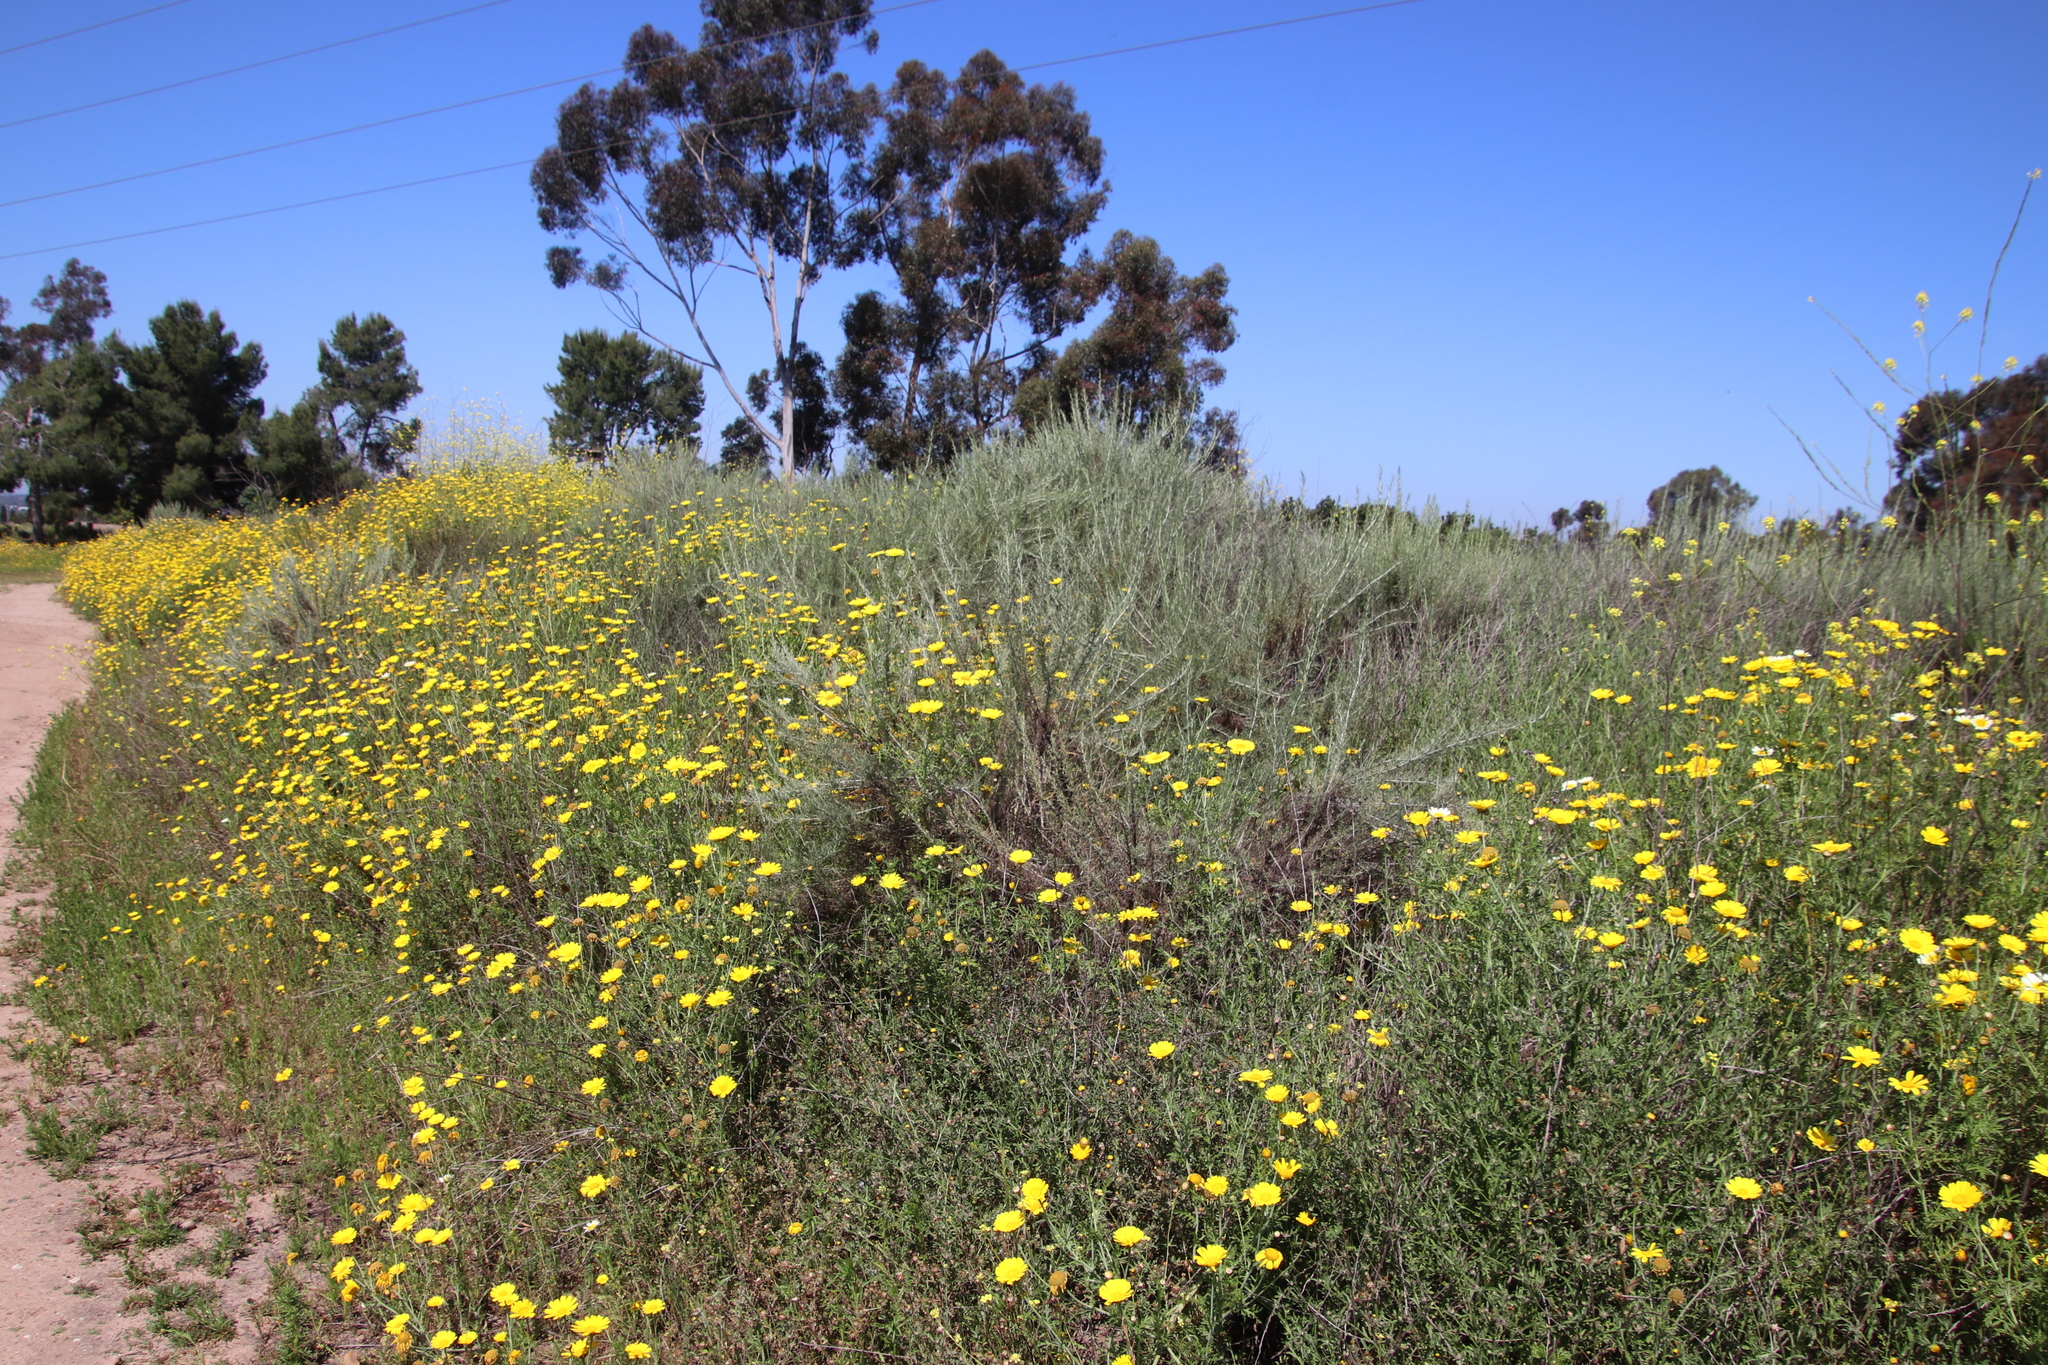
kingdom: Plantae
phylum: Tracheophyta
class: Magnoliopsida
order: Asterales
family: Asteraceae
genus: Glebionis
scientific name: Glebionis coronaria
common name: Crowndaisy
